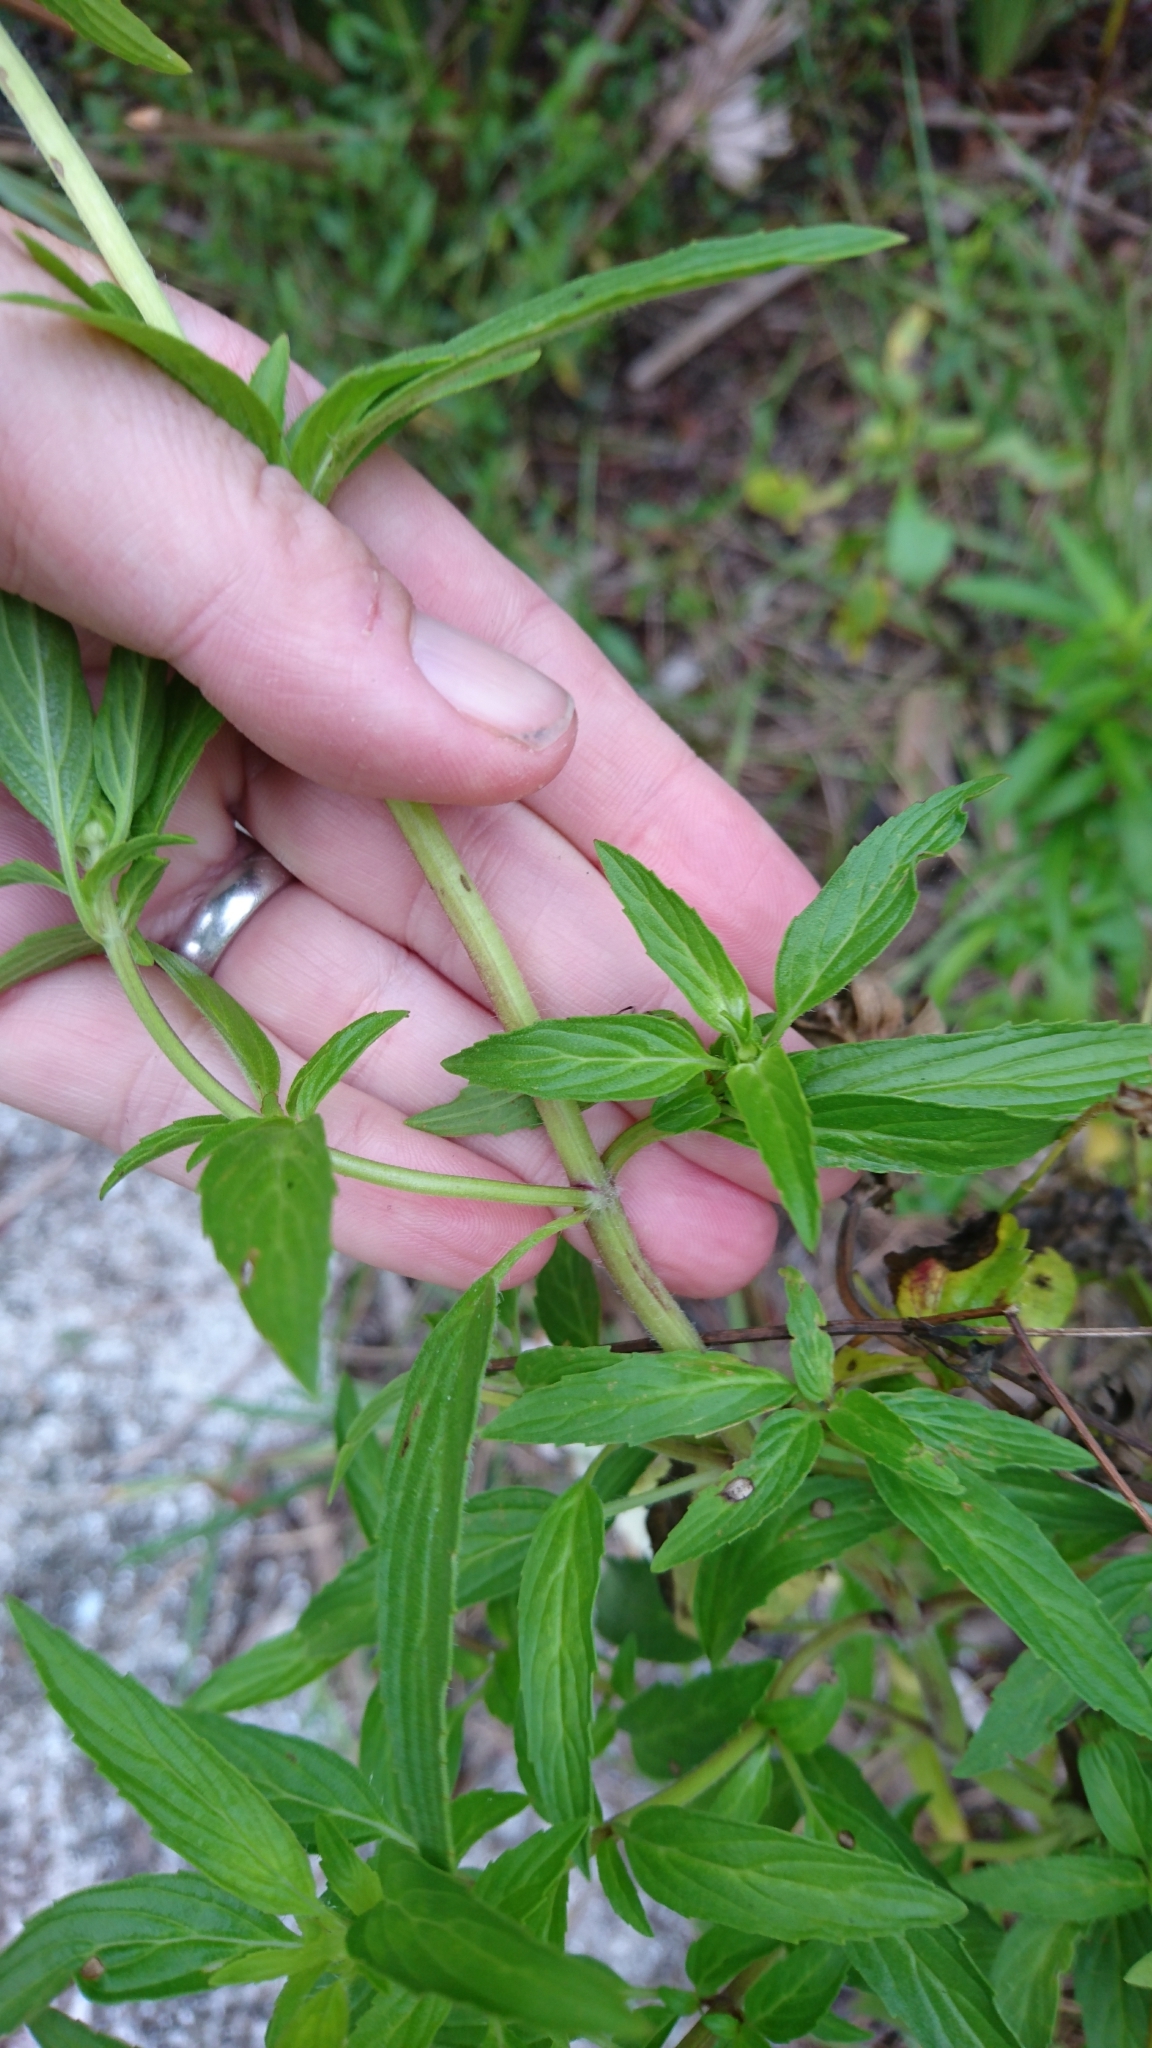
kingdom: Plantae
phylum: Tracheophyta
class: Magnoliopsida
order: Lamiales
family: Lamiaceae
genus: Monarda
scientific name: Monarda punctata
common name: Dotted monarda
